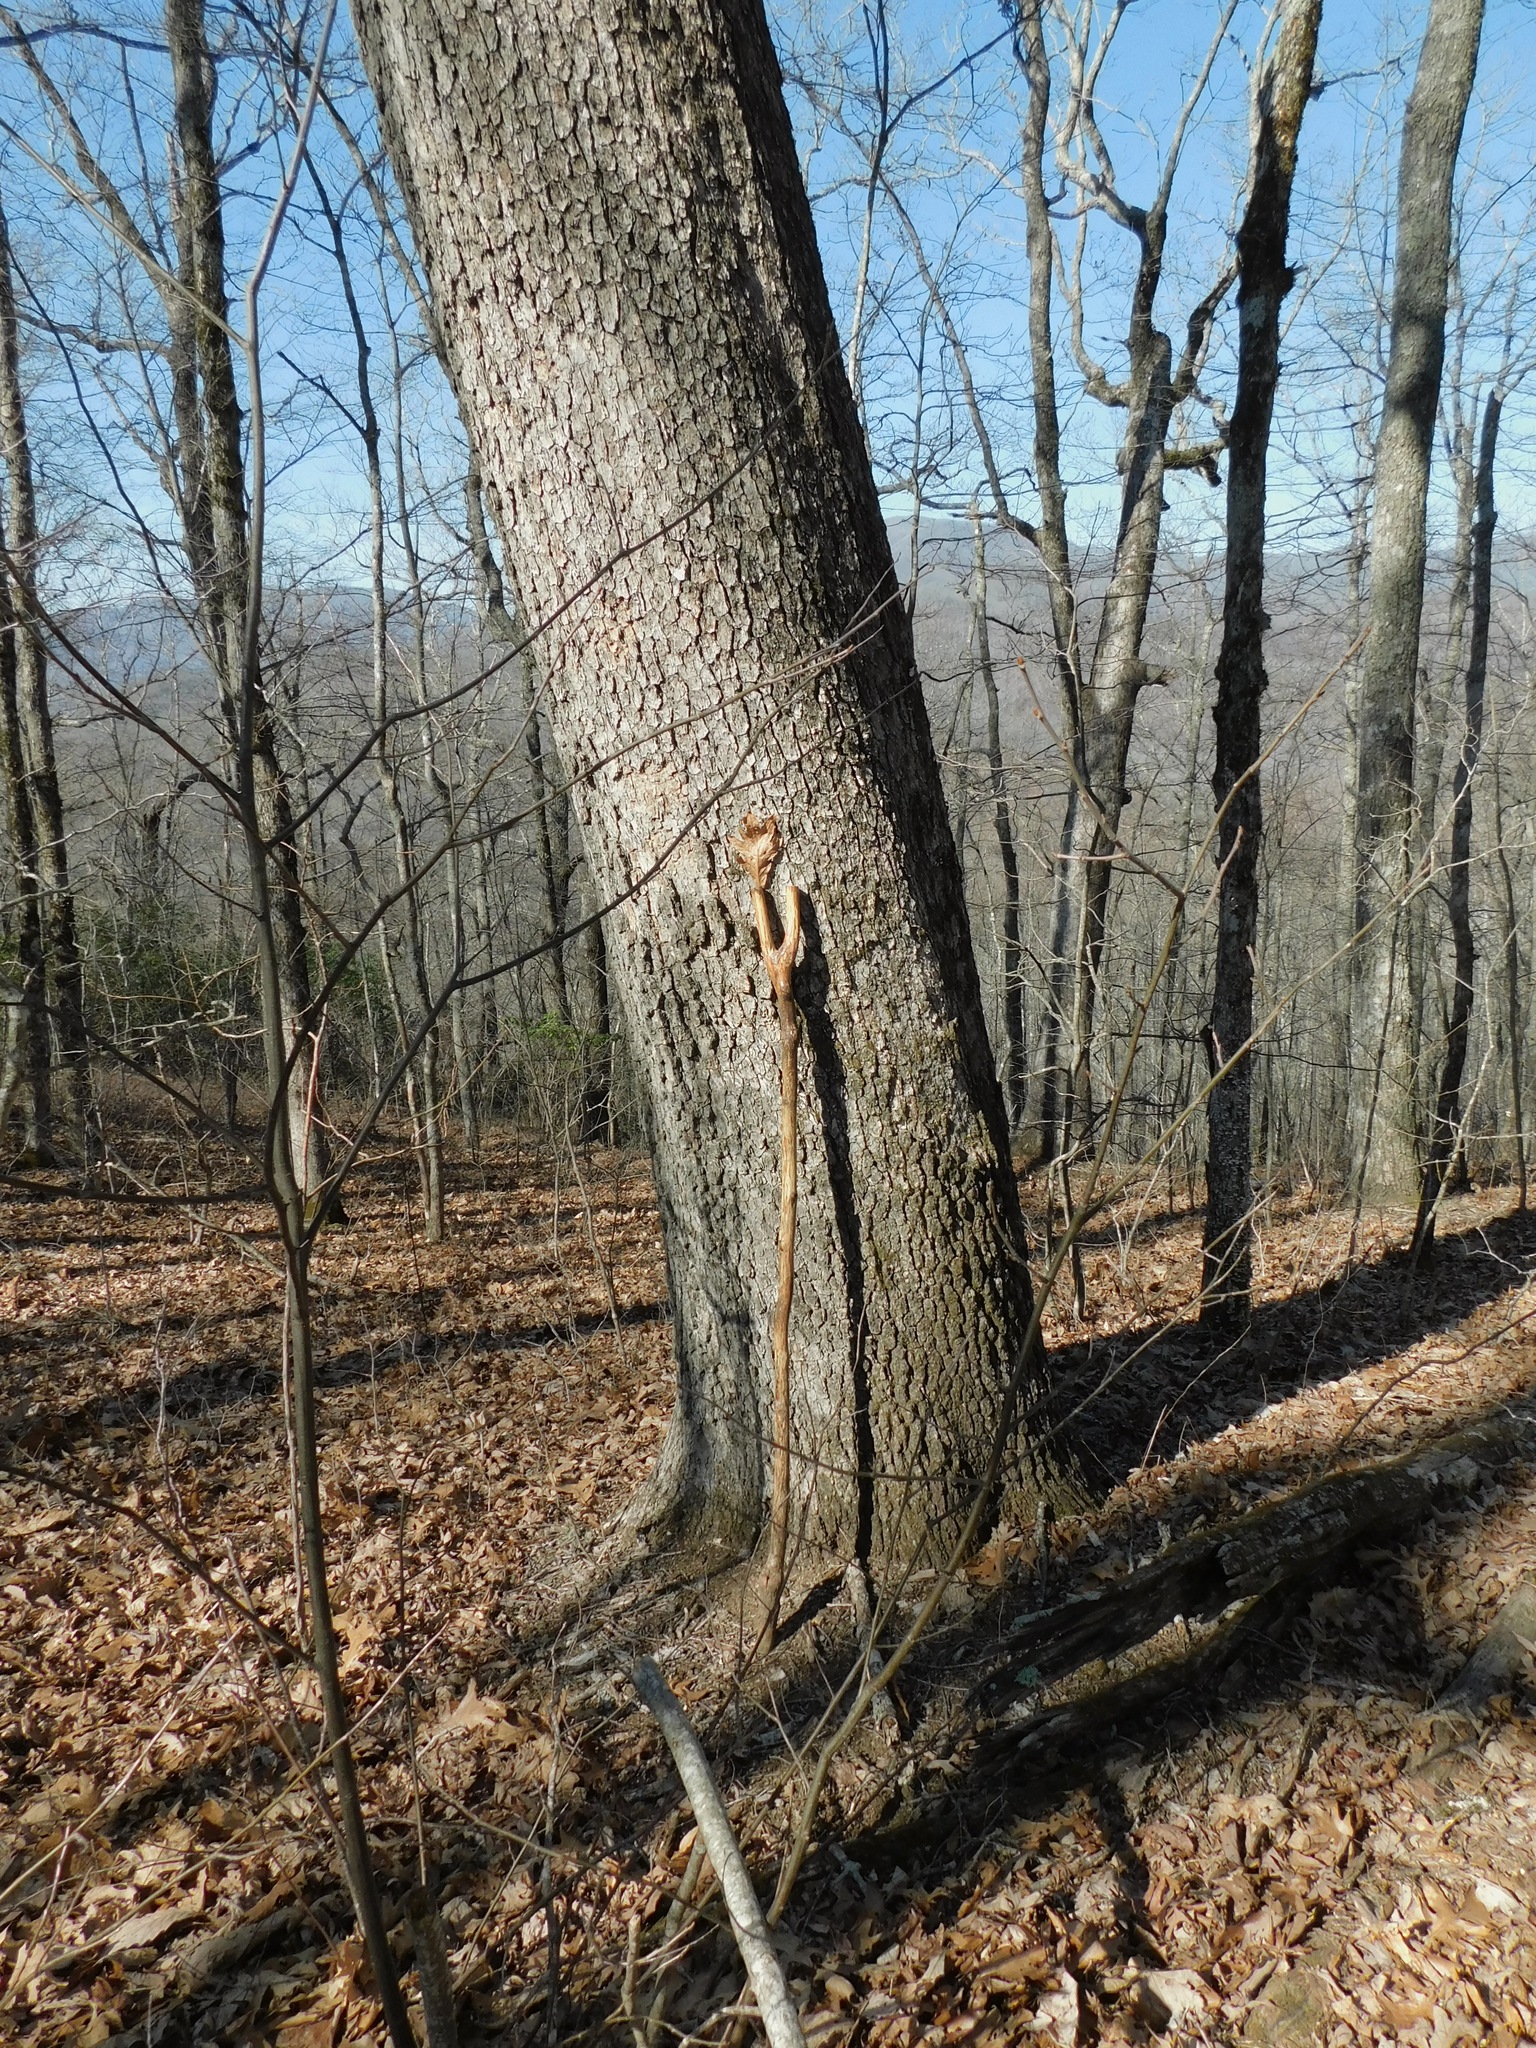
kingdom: Plantae
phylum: Tracheophyta
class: Magnoliopsida
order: Fagales
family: Fagaceae
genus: Quercus
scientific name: Quercus alba
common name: White oak
